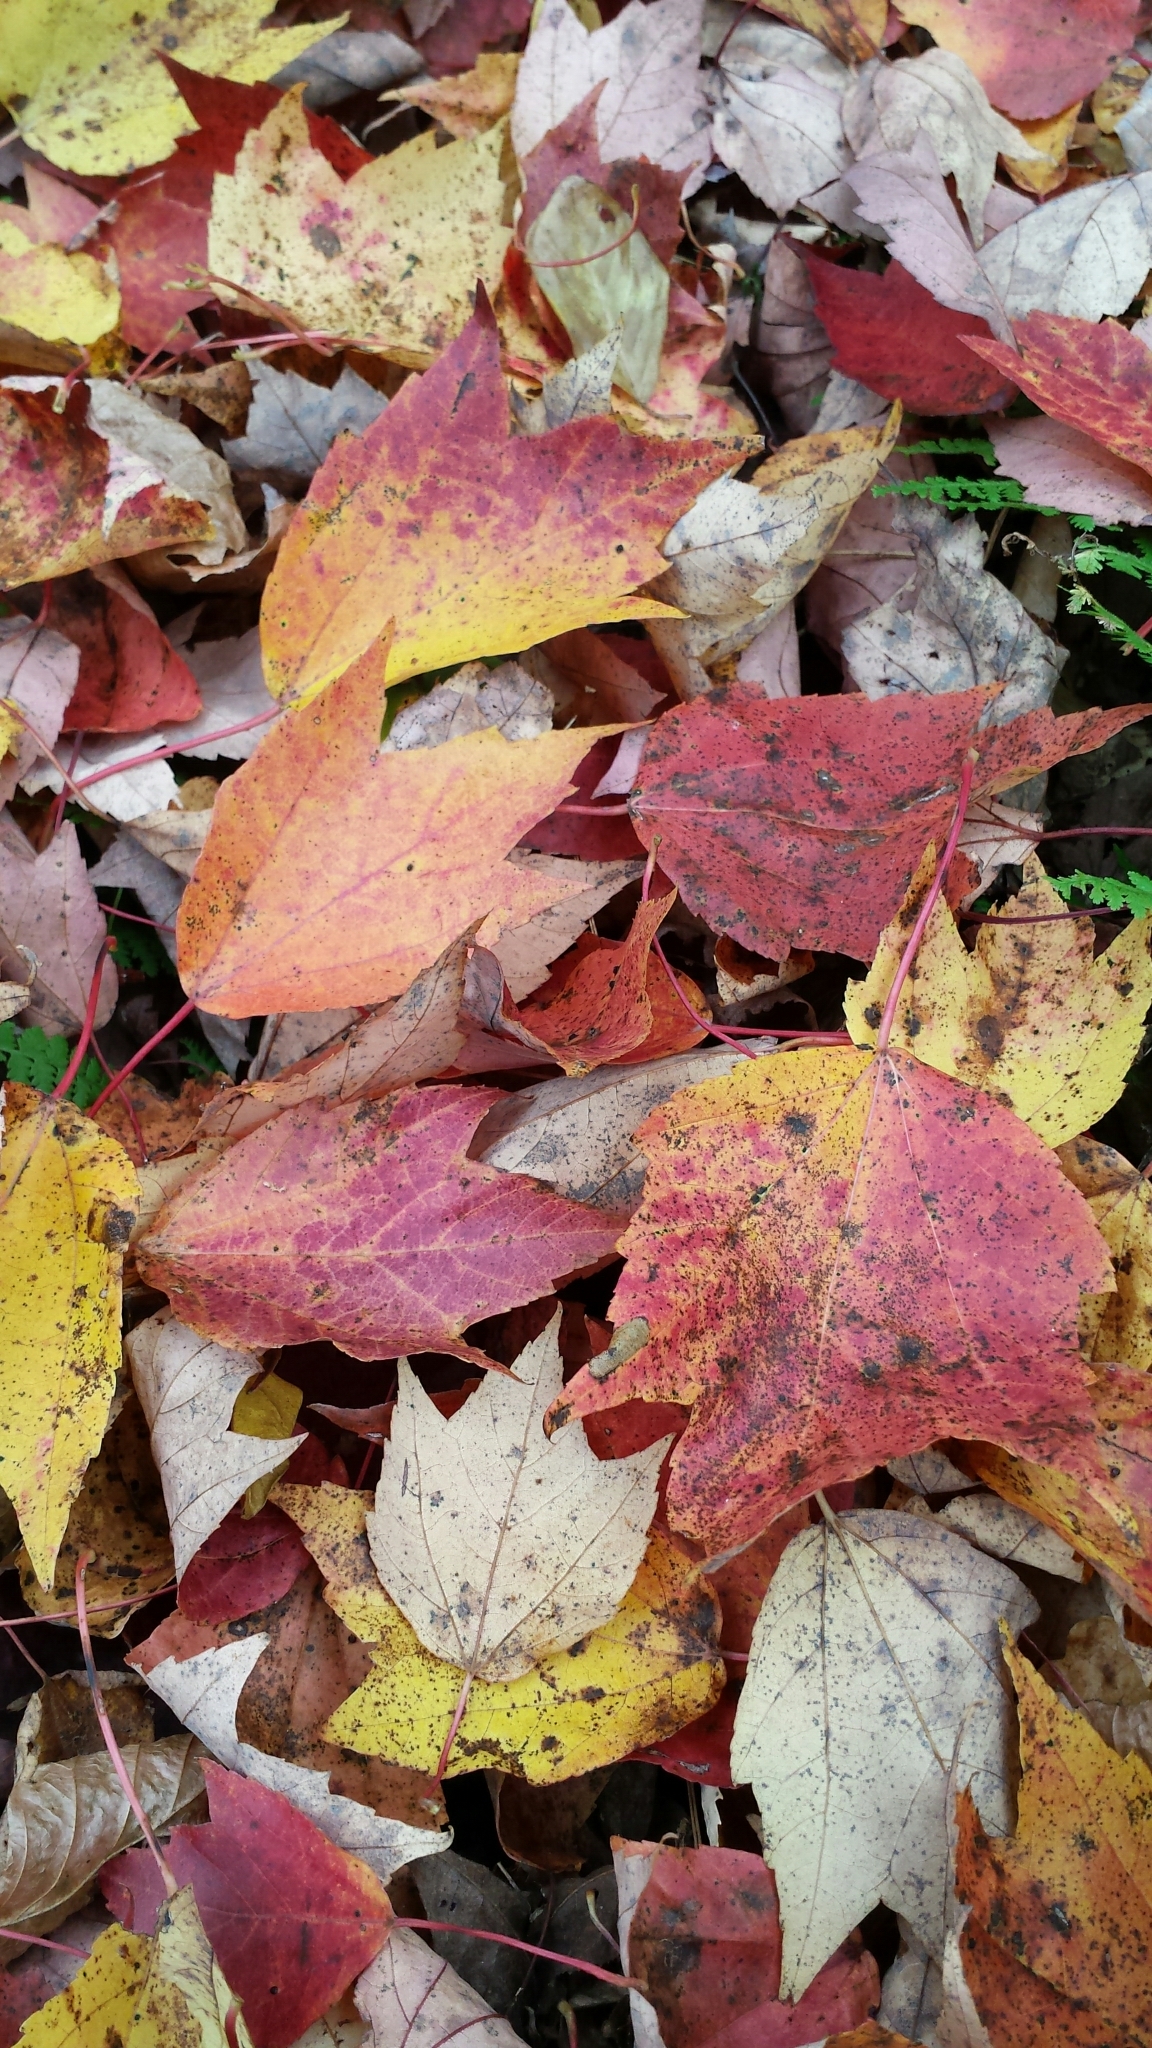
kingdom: Plantae
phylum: Tracheophyta
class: Magnoliopsida
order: Sapindales
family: Sapindaceae
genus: Acer
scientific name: Acer rubrum
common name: Red maple
